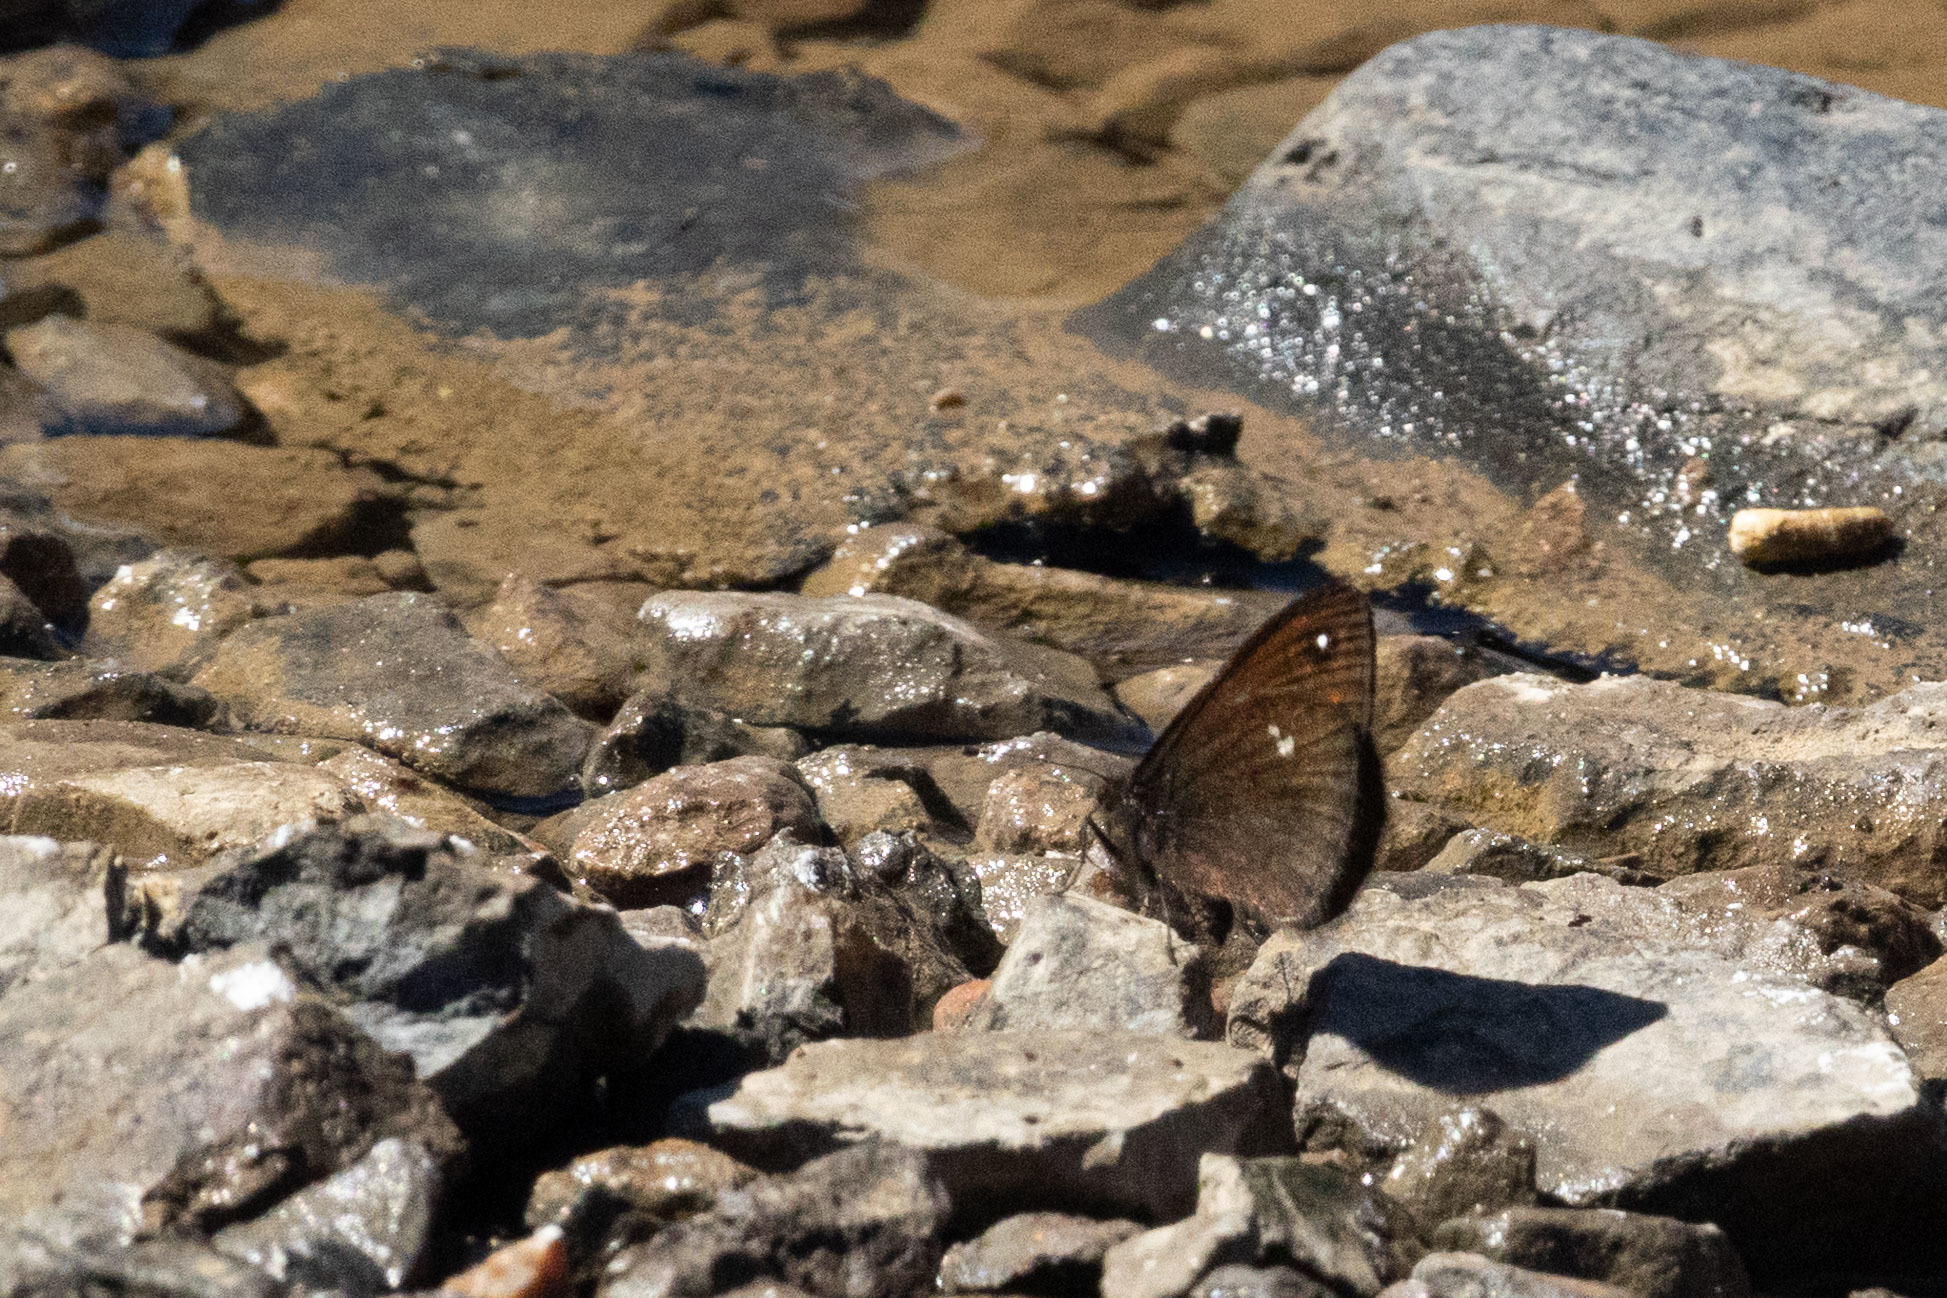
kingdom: Animalia
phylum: Arthropoda
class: Insecta
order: Lepidoptera
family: Nymphalidae
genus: Faunula
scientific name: Faunula leucoglene
